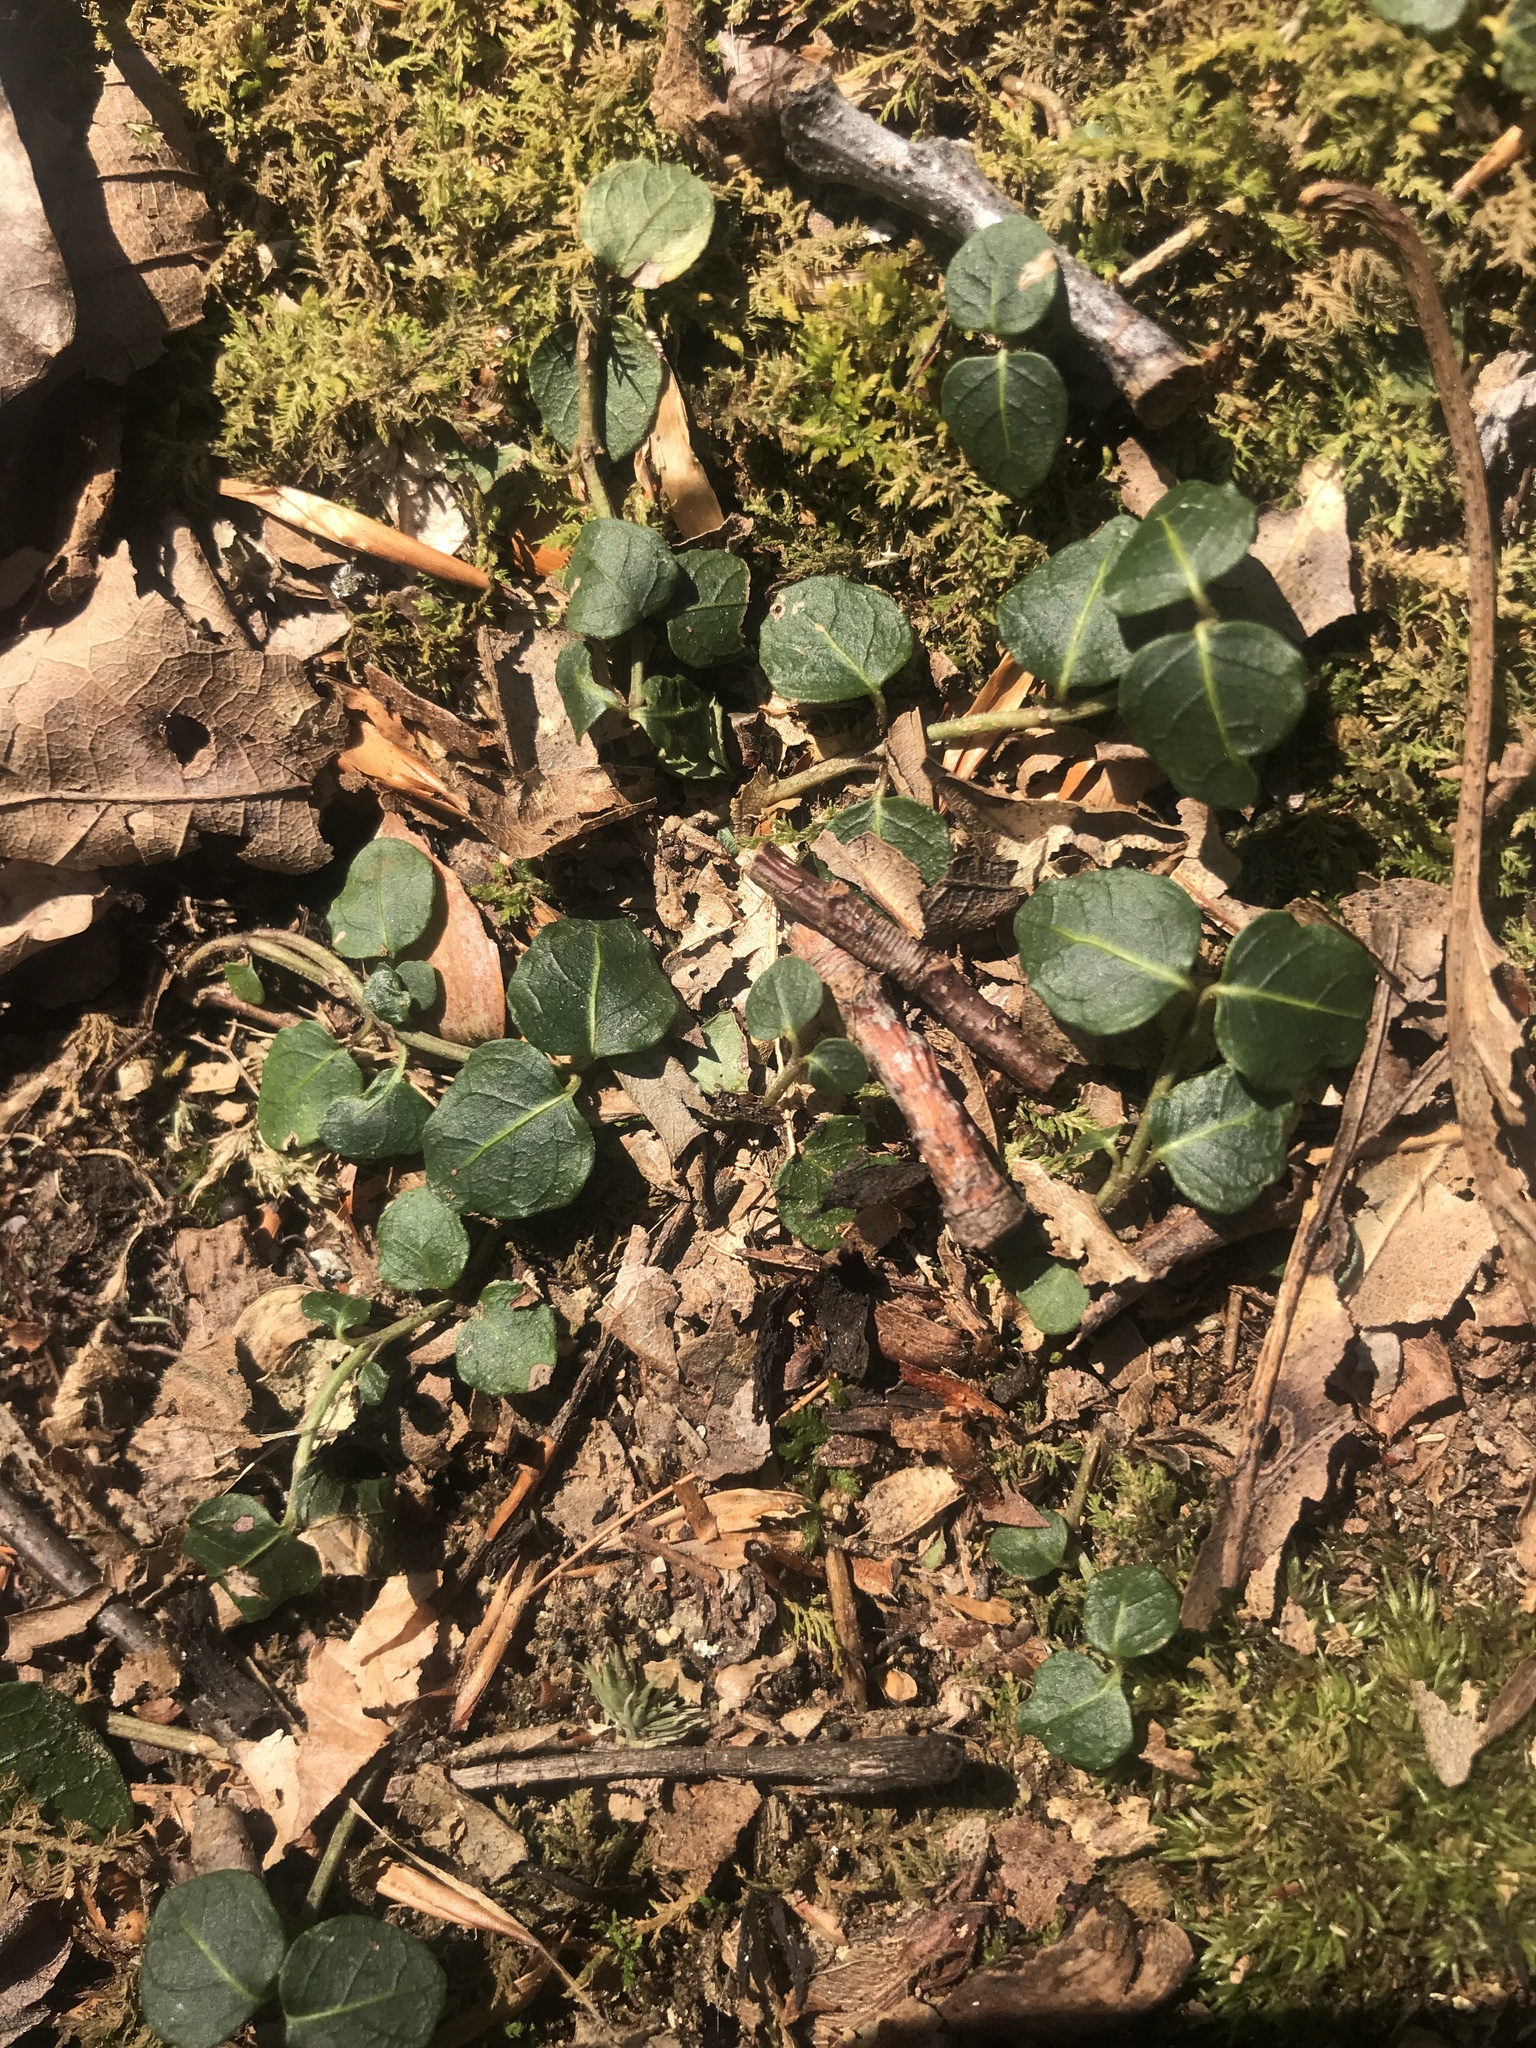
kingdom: Plantae
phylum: Tracheophyta
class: Magnoliopsida
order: Gentianales
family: Rubiaceae
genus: Mitchella
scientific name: Mitchella repens
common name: Partridge-berry
